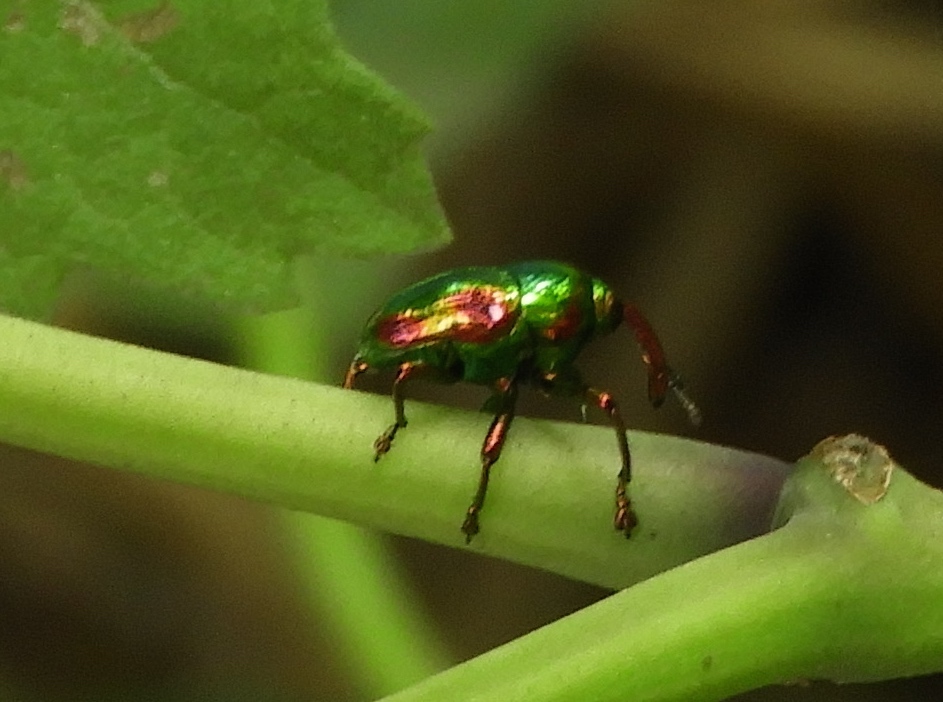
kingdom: Animalia
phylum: Arthropoda
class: Insecta
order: Coleoptera
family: Eurhynchidae
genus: Eurhinus
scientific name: Eurhinus magnificus
